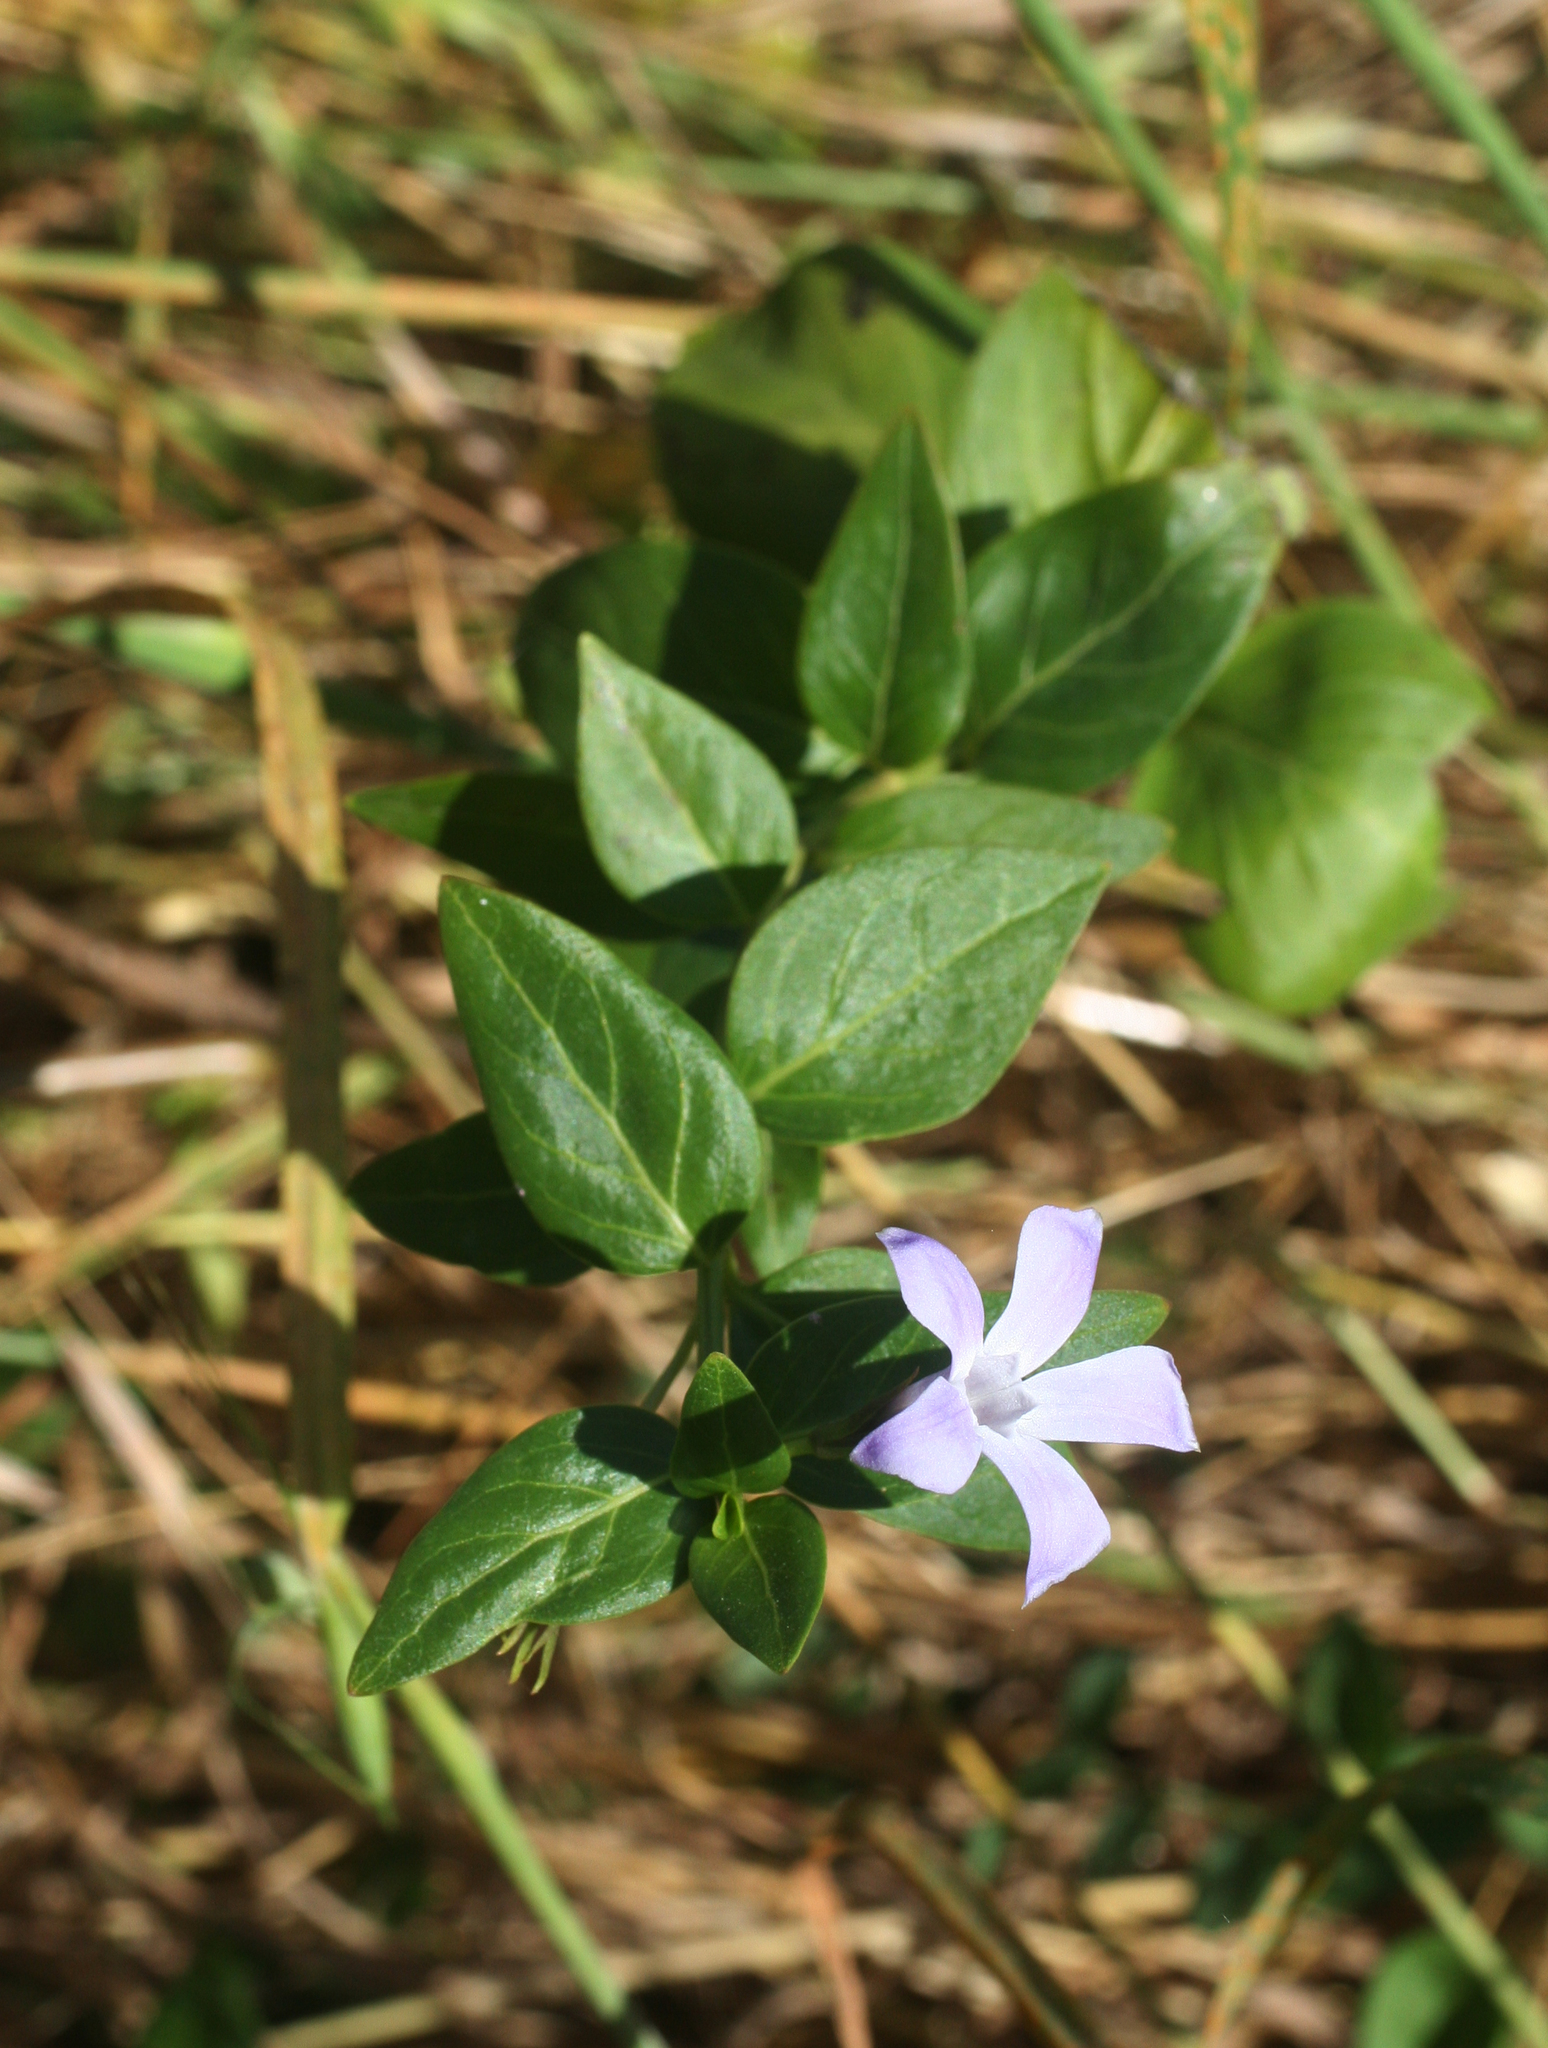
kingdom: Plantae
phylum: Tracheophyta
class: Magnoliopsida
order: Gentianales
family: Apocynaceae
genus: Vinca
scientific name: Vinca difformis
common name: Intermediate periwinkle
